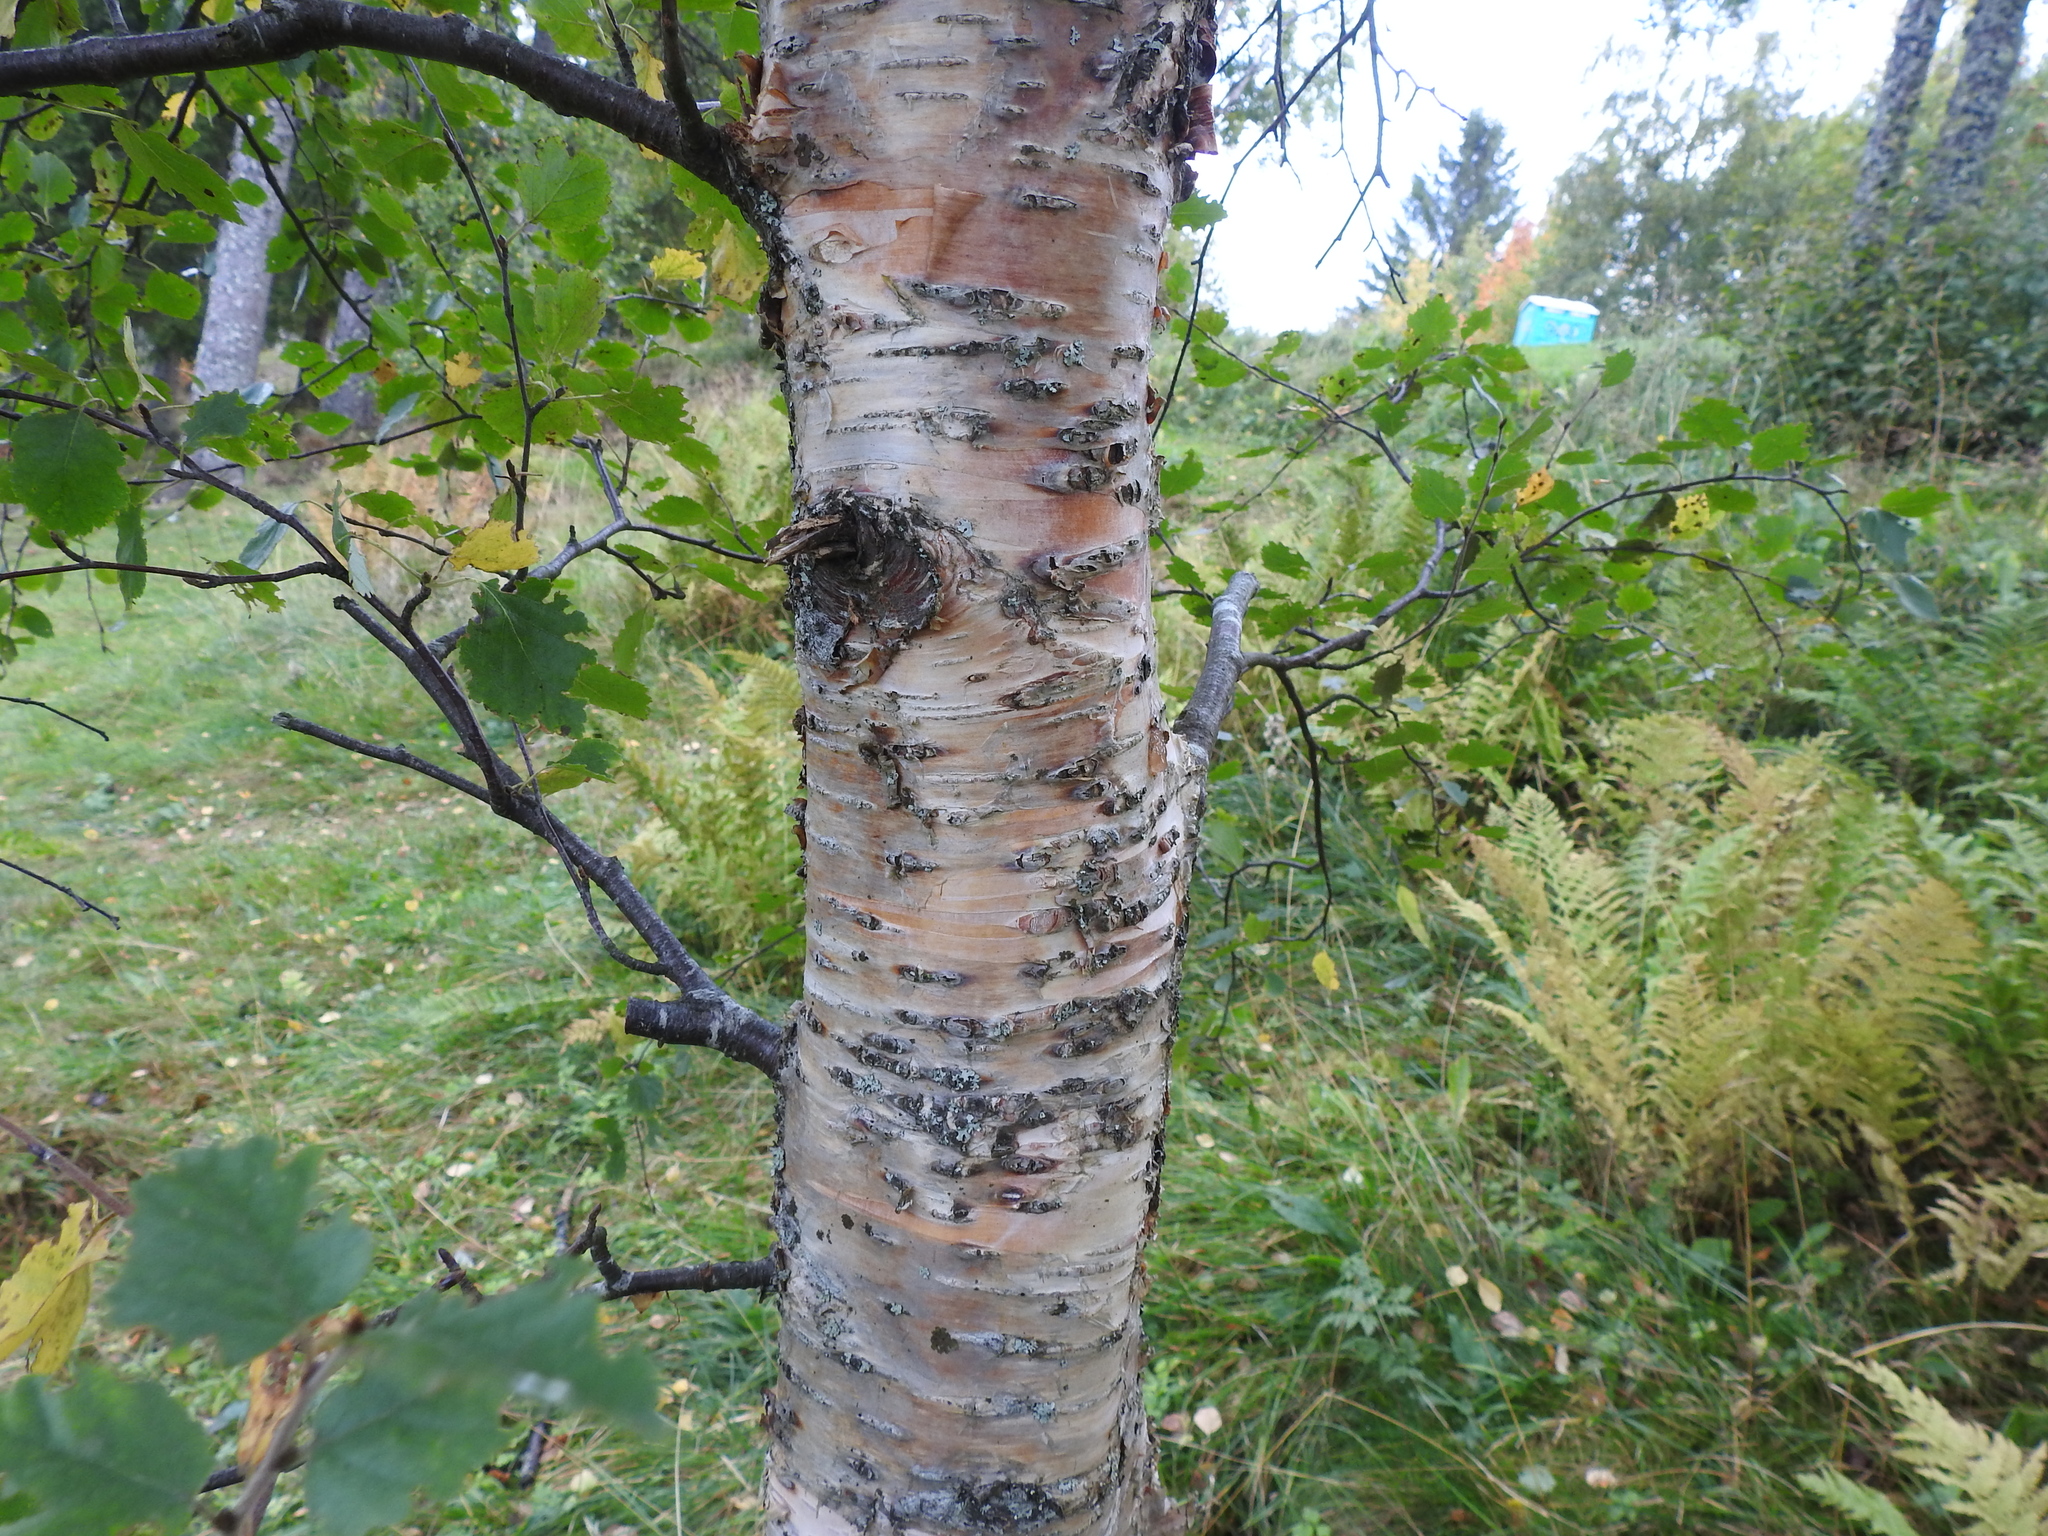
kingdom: Plantae
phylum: Tracheophyta
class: Magnoliopsida
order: Fagales
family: Betulaceae
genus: Betula
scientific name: Betula pubescens
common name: Downy birch
